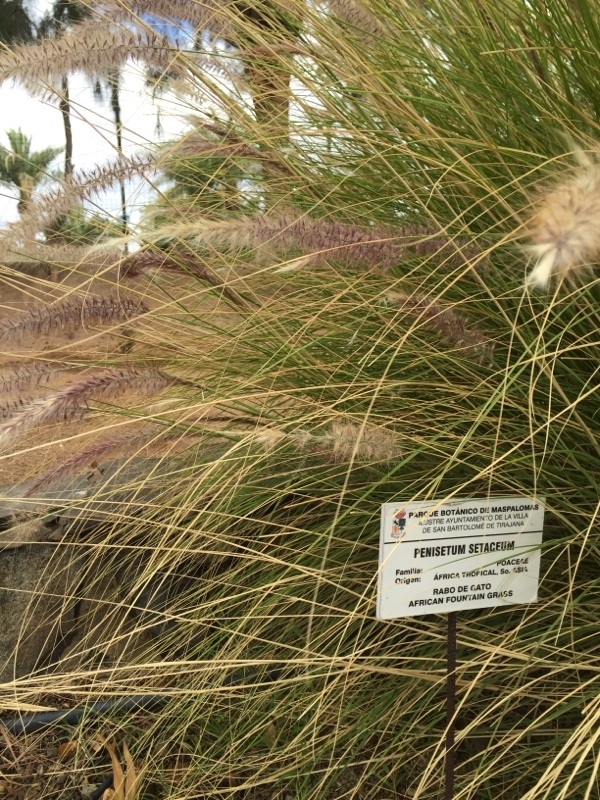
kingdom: Plantae
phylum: Tracheophyta
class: Liliopsida
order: Poales
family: Poaceae
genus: Cenchrus
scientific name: Cenchrus setaceus
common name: Crimson fountaingrass
